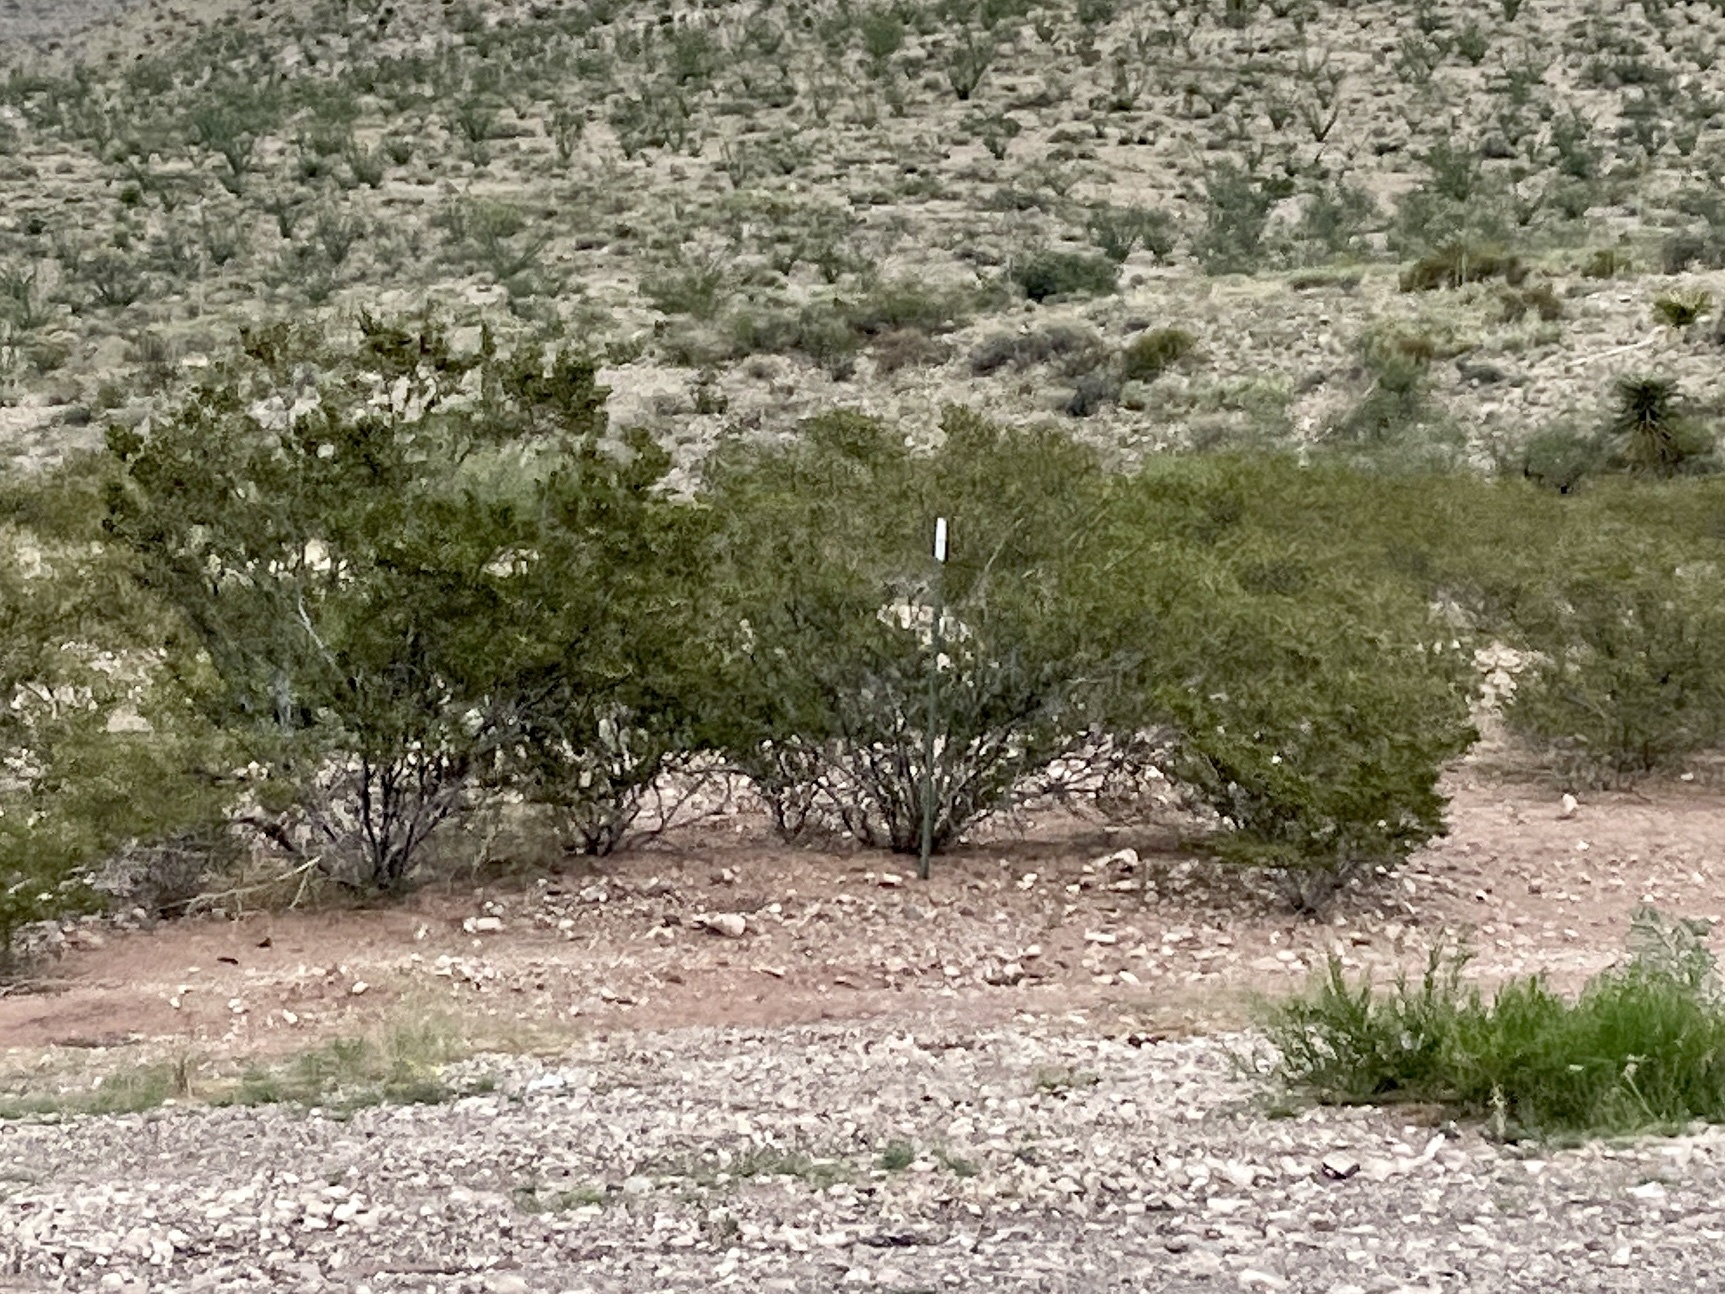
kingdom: Plantae
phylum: Tracheophyta
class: Magnoliopsida
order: Zygophyllales
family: Zygophyllaceae
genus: Larrea
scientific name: Larrea tridentata
